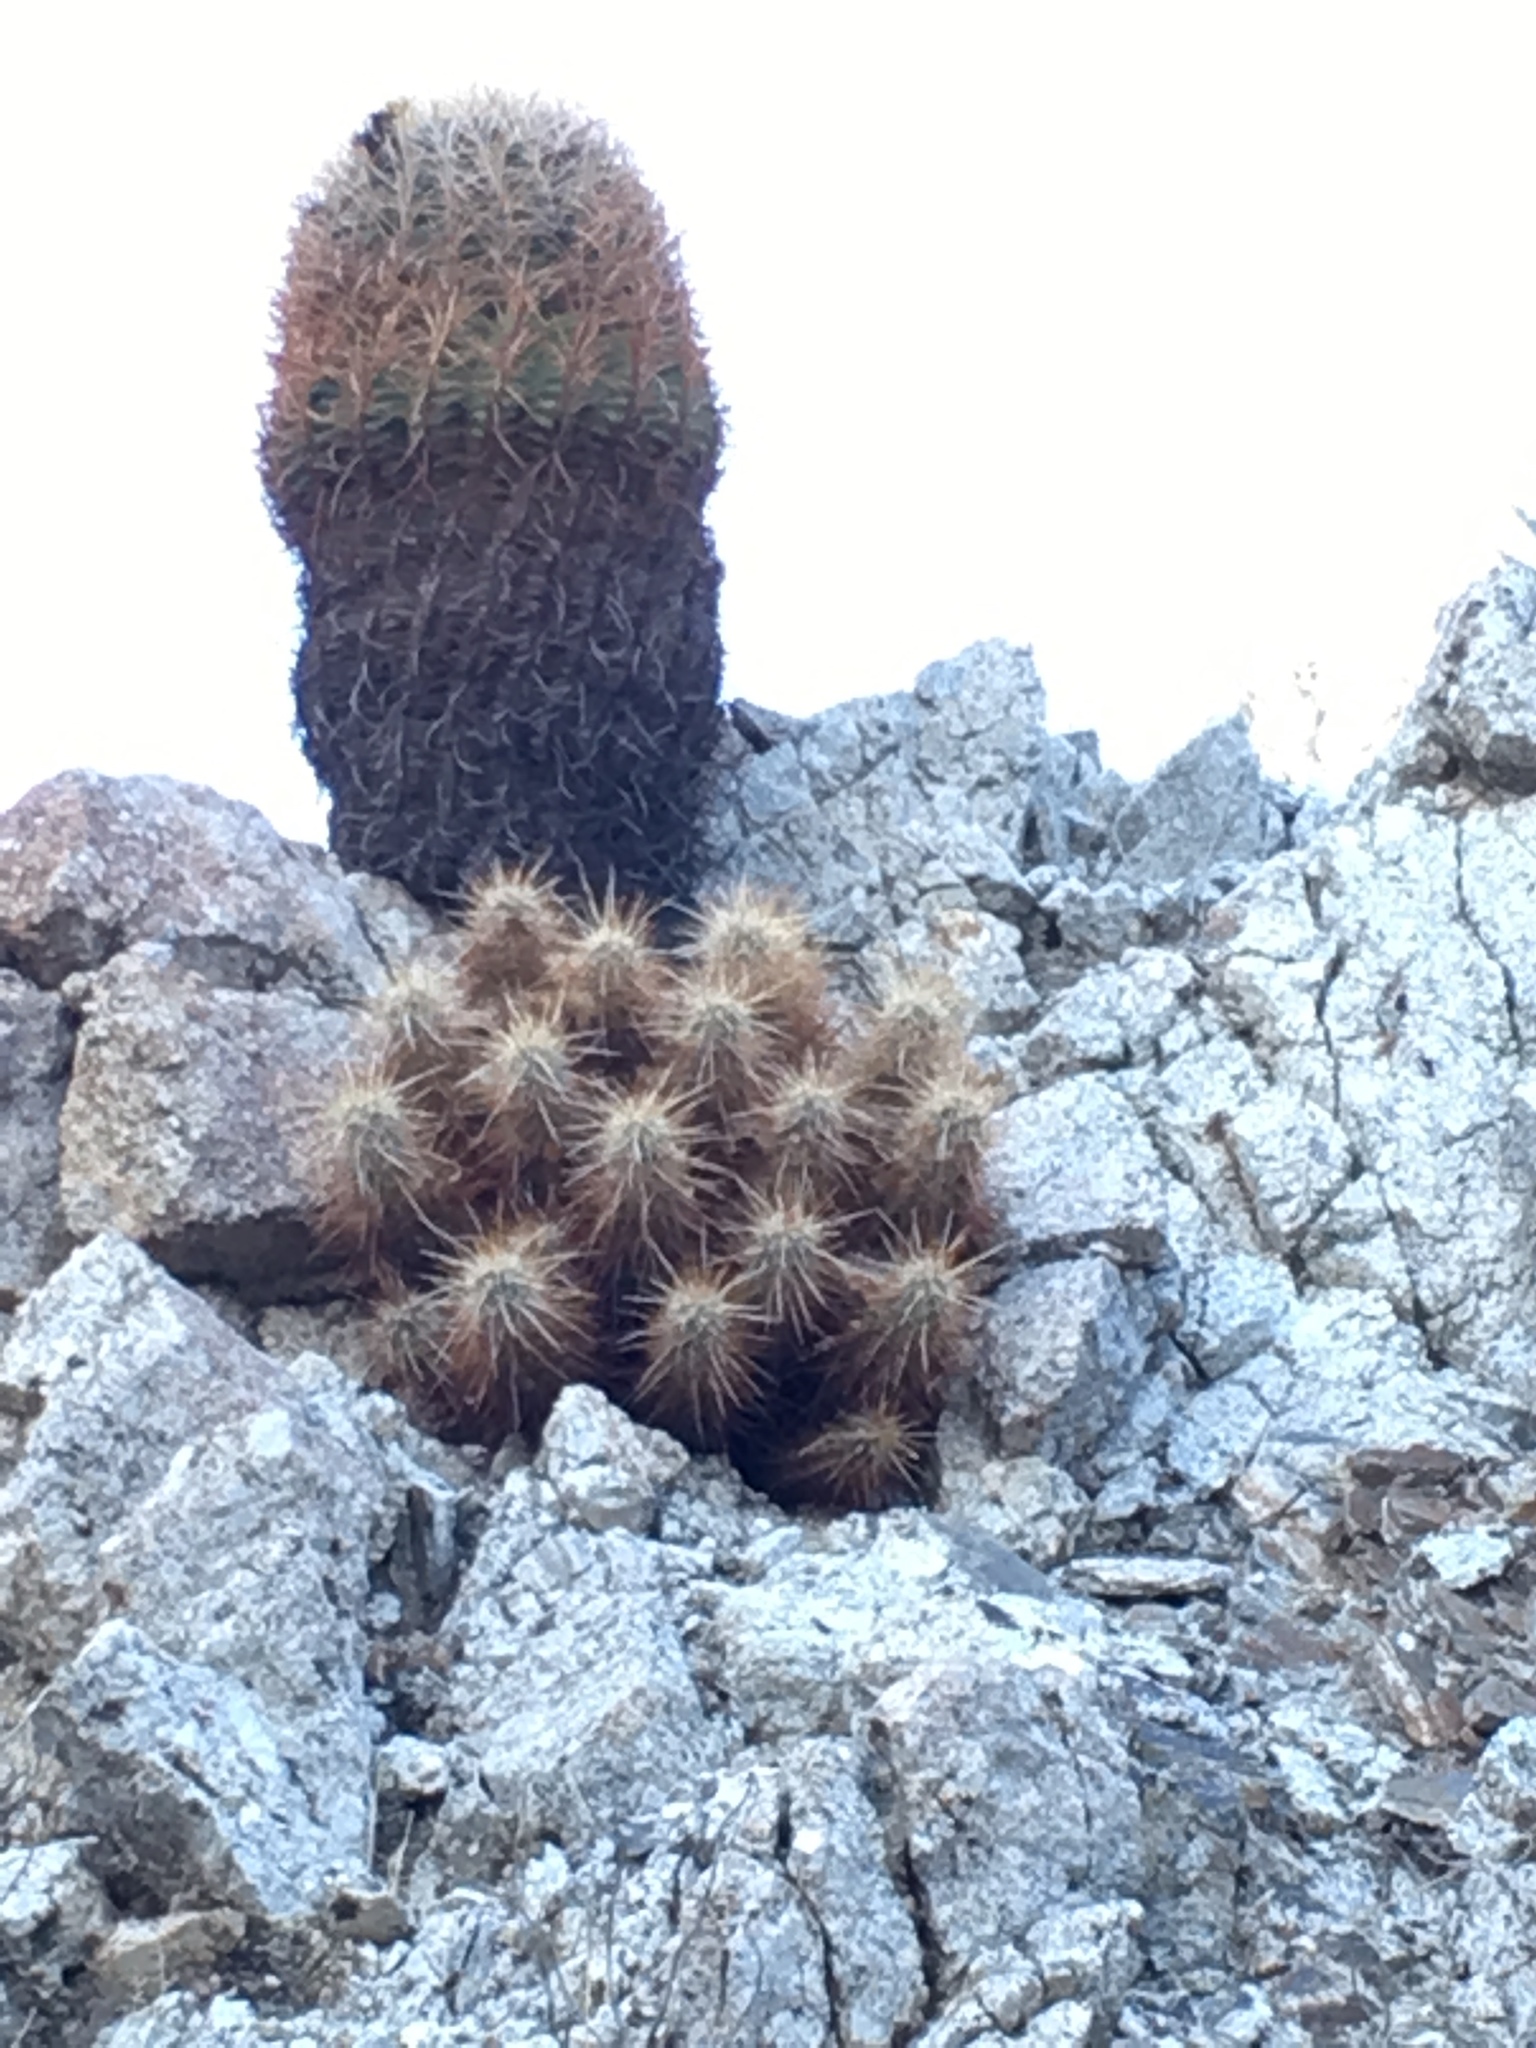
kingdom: Plantae
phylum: Tracheophyta
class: Magnoliopsida
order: Caryophyllales
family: Cactaceae
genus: Ferocactus
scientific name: Ferocactus cylindraceus
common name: California barrel cactus
